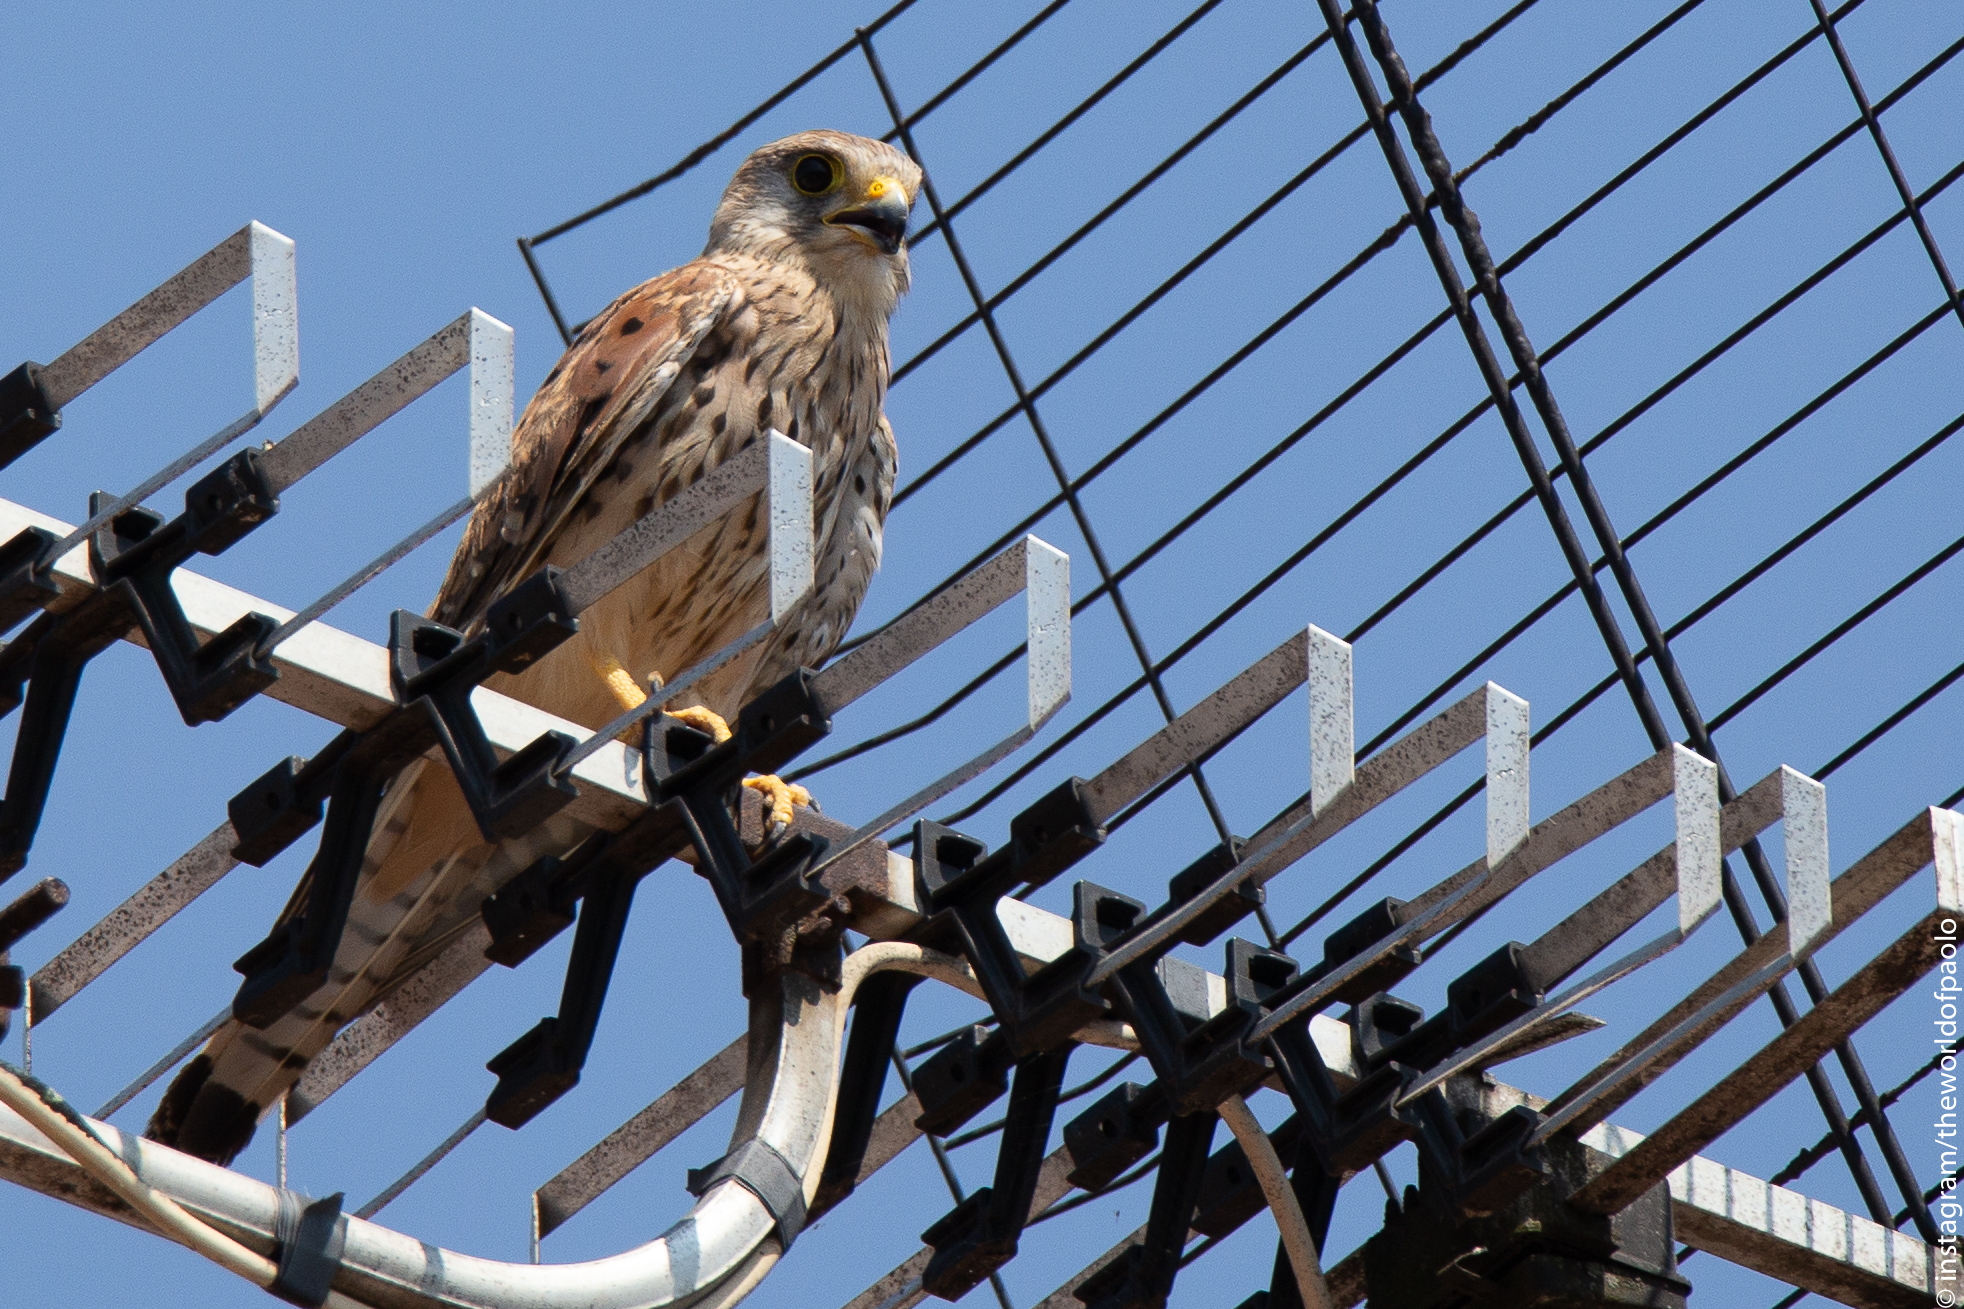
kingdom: Animalia
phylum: Chordata
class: Aves
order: Falconiformes
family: Falconidae
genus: Falco
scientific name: Falco tinnunculus
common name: Common kestrel
